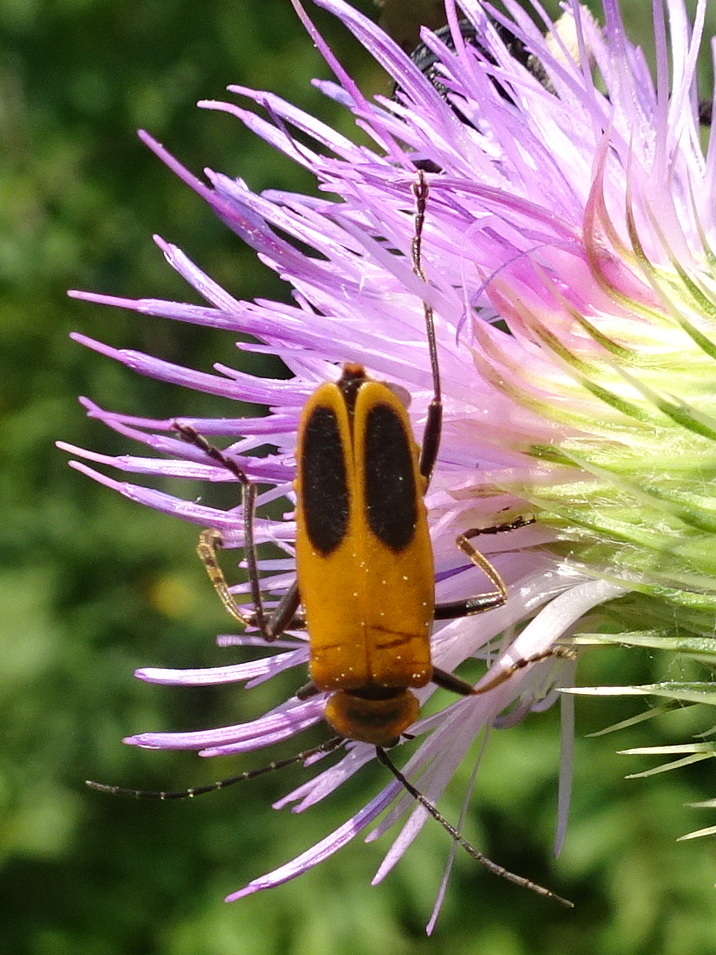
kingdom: Animalia
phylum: Arthropoda
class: Insecta
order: Coleoptera
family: Cantharidae
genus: Chauliognathus
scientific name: Chauliognathus pensylvanicus
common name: Goldenrod soldier beetle
